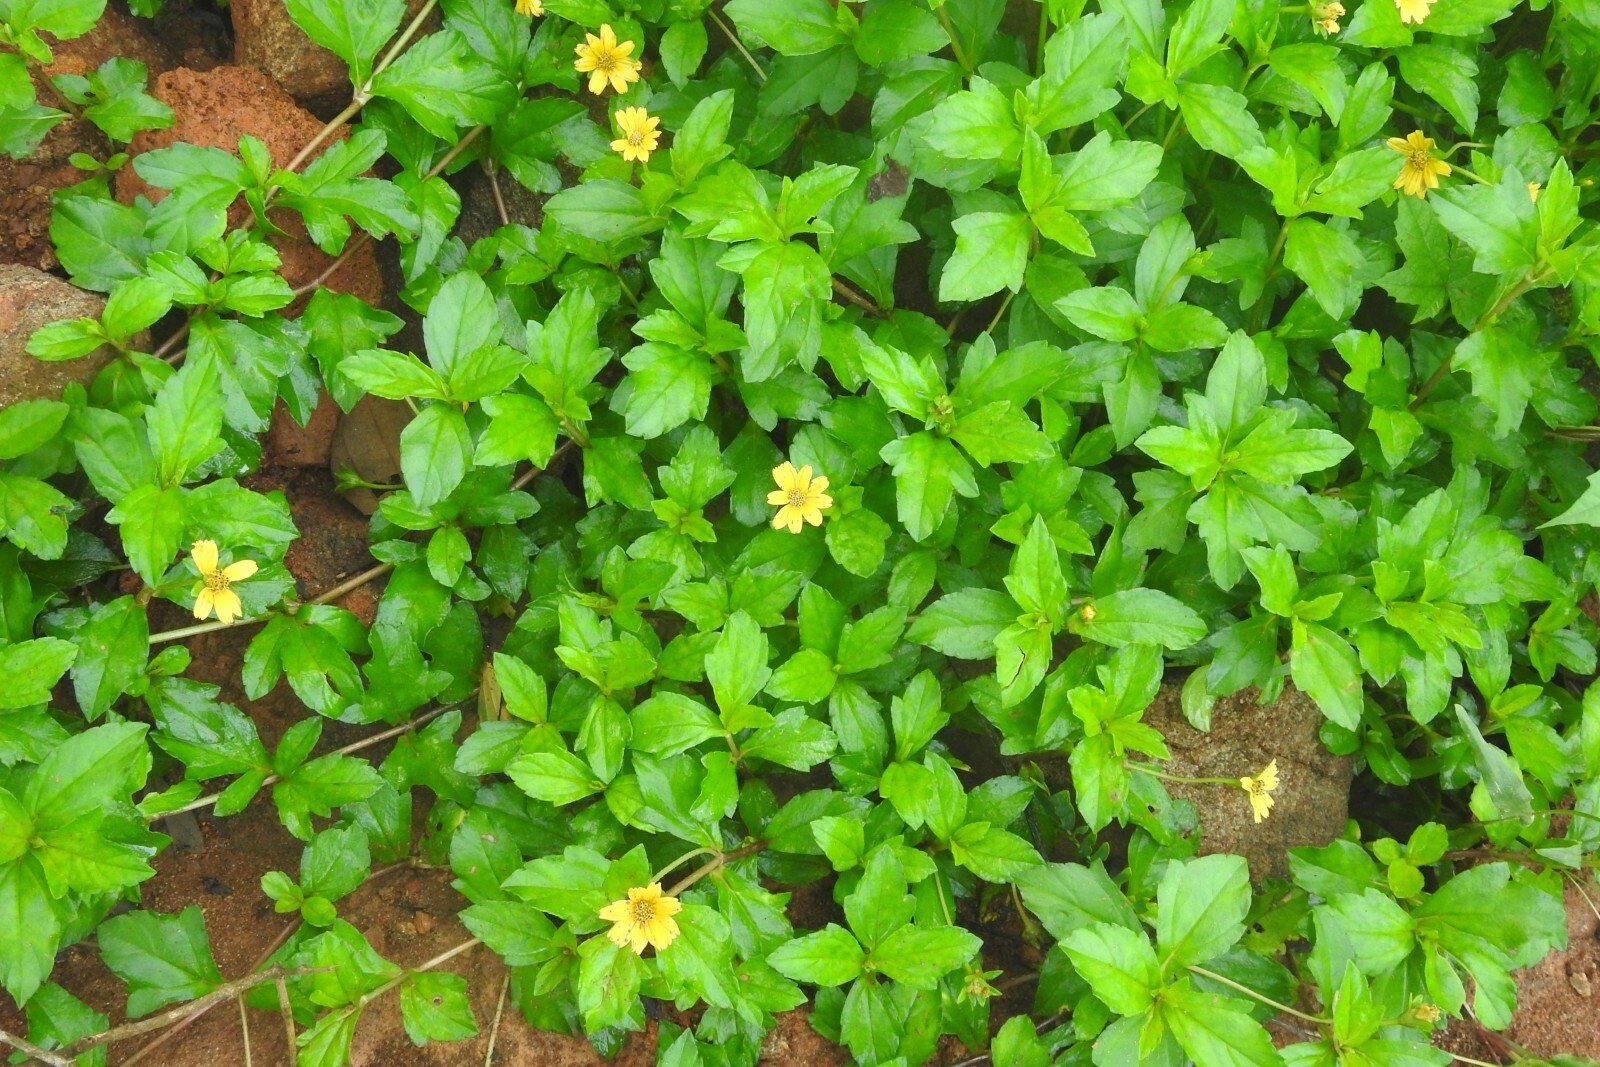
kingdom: Plantae
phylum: Tracheophyta
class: Magnoliopsida
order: Asterales
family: Asteraceae
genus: Sphagneticola
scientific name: Sphagneticola trilobata
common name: Bay biscayne creeping-oxeye
